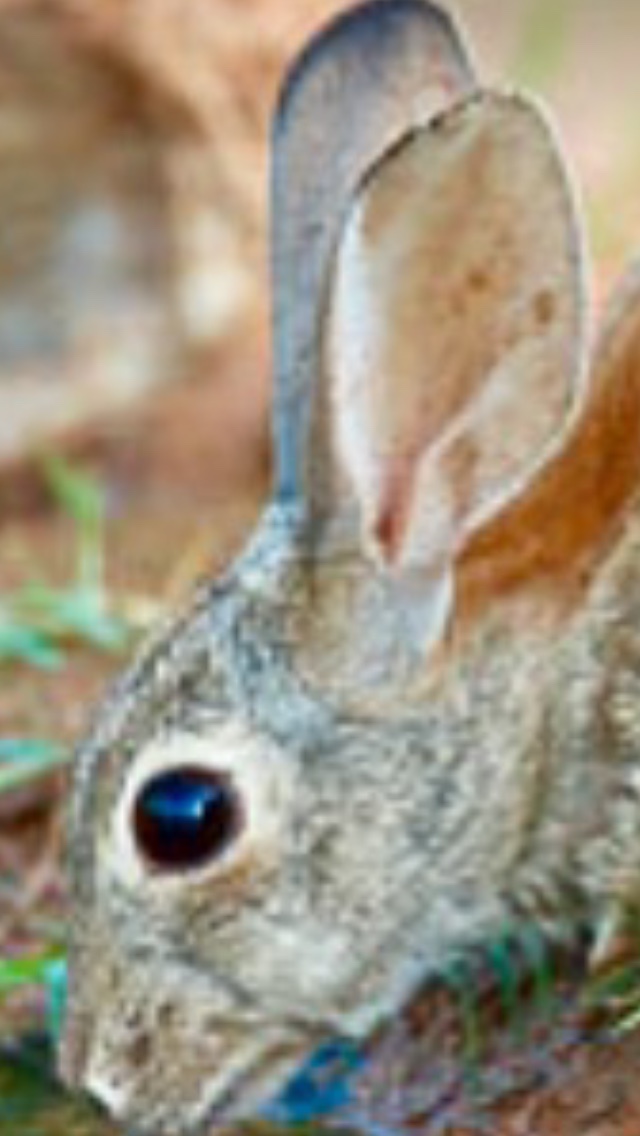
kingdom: Animalia
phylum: Chordata
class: Mammalia
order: Lagomorpha
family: Leporidae
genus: Sylvilagus
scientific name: Sylvilagus audubonii
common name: Desert cottontail
